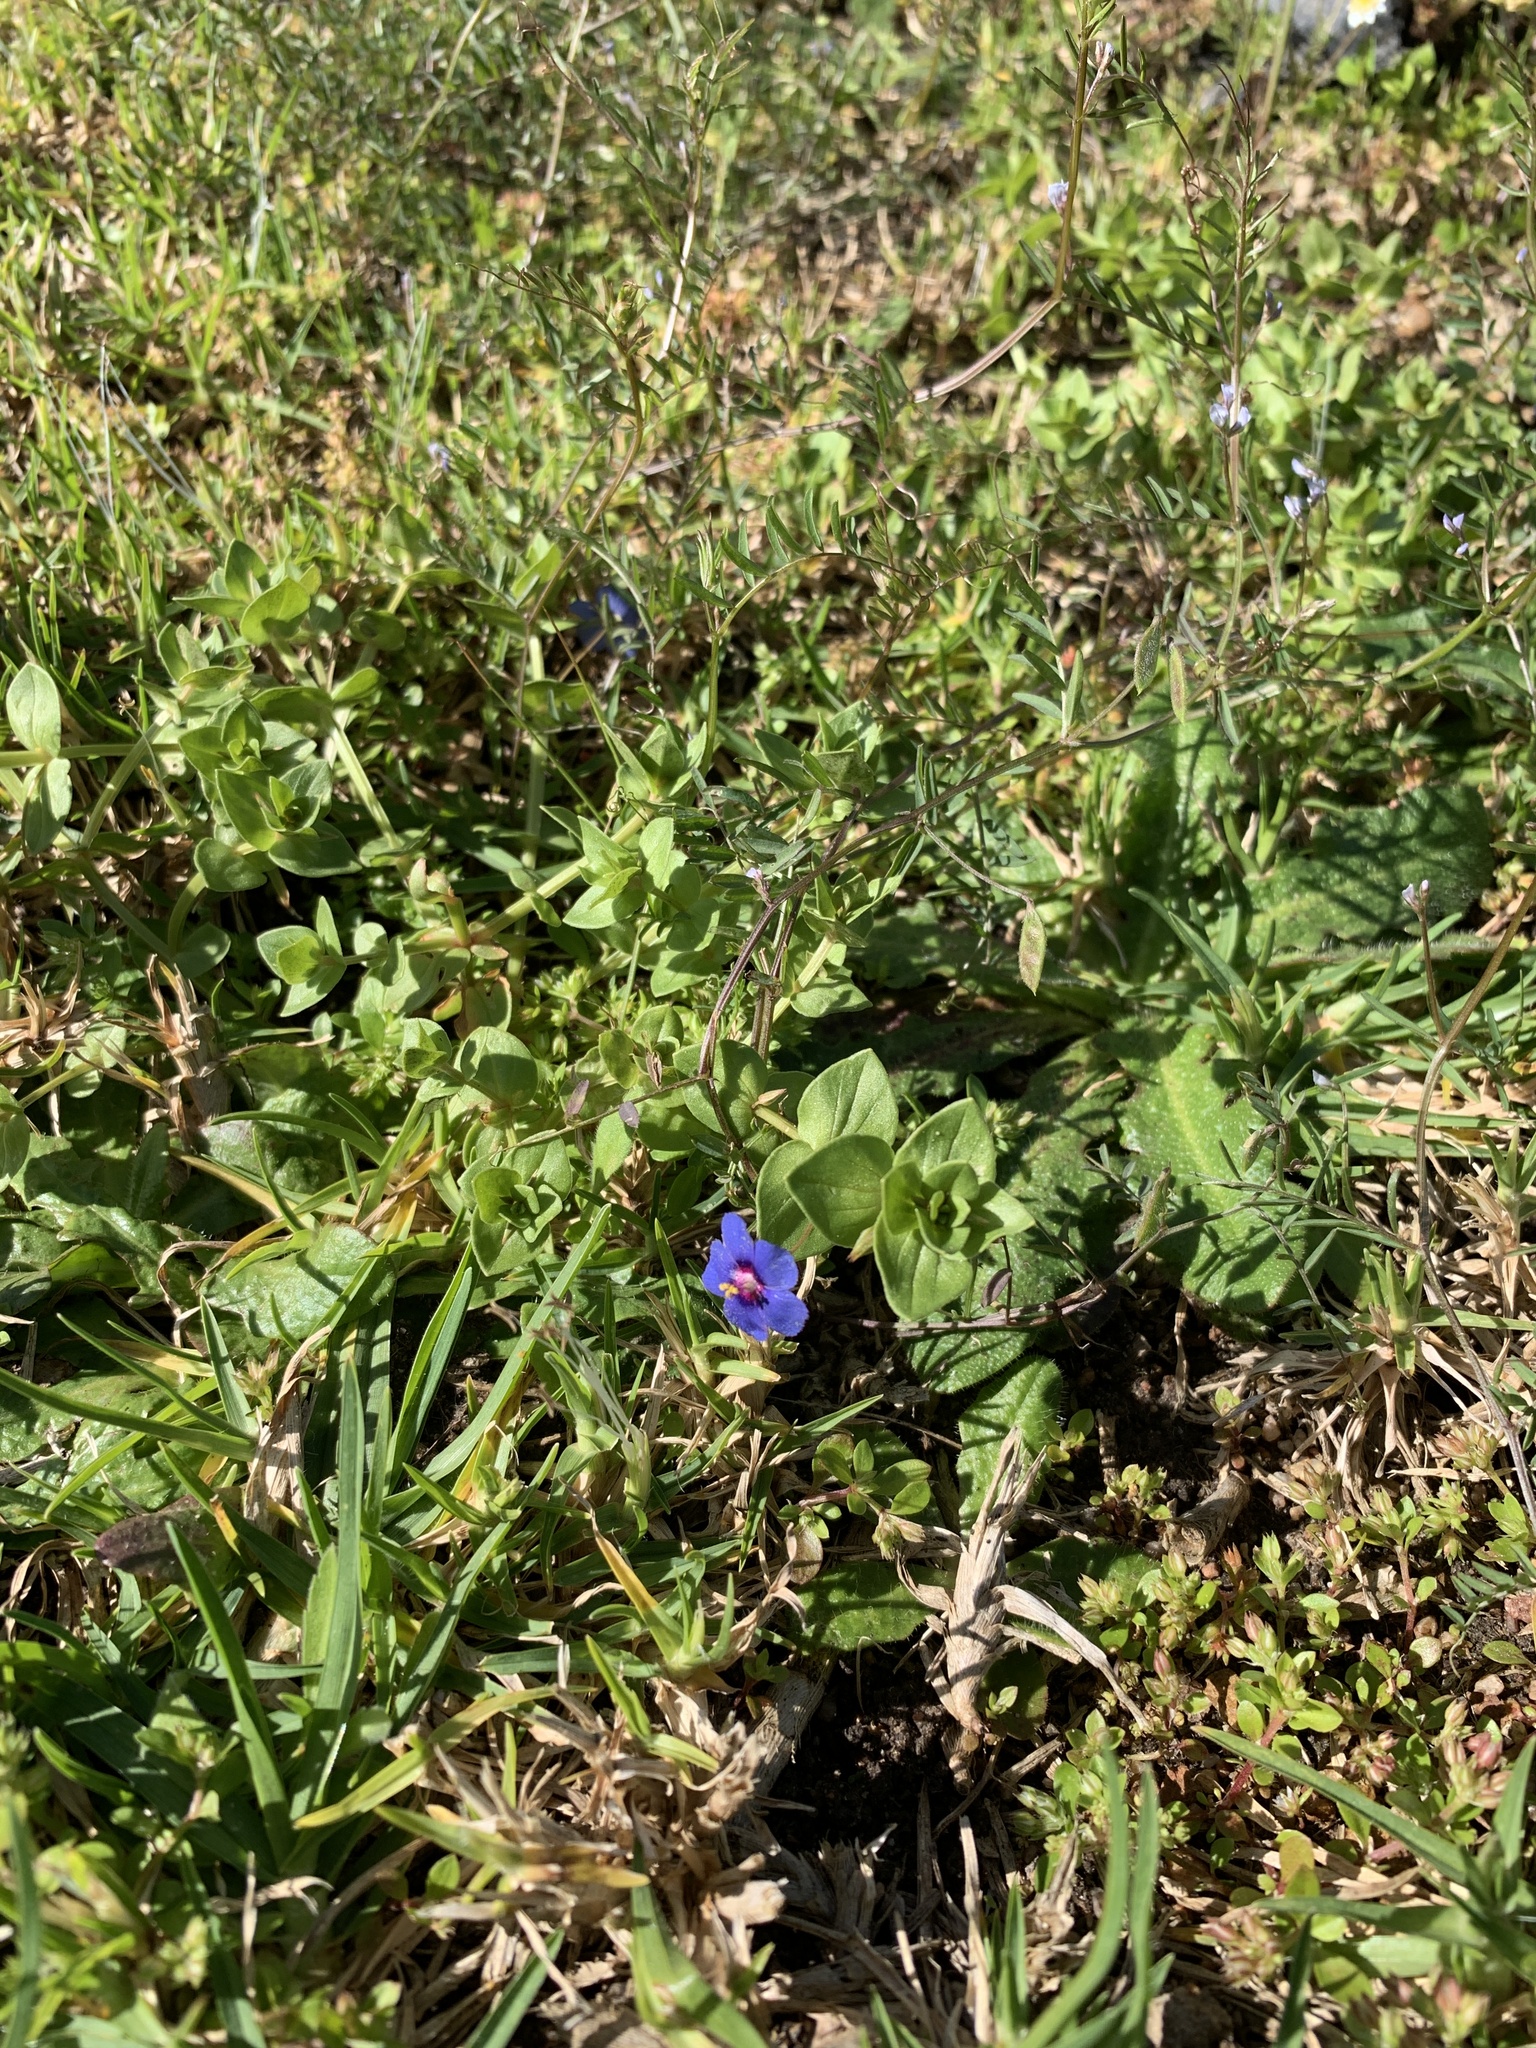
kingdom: Plantae
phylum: Tracheophyta
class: Magnoliopsida
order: Ericales
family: Primulaceae
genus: Lysimachia
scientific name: Lysimachia loeflingii
